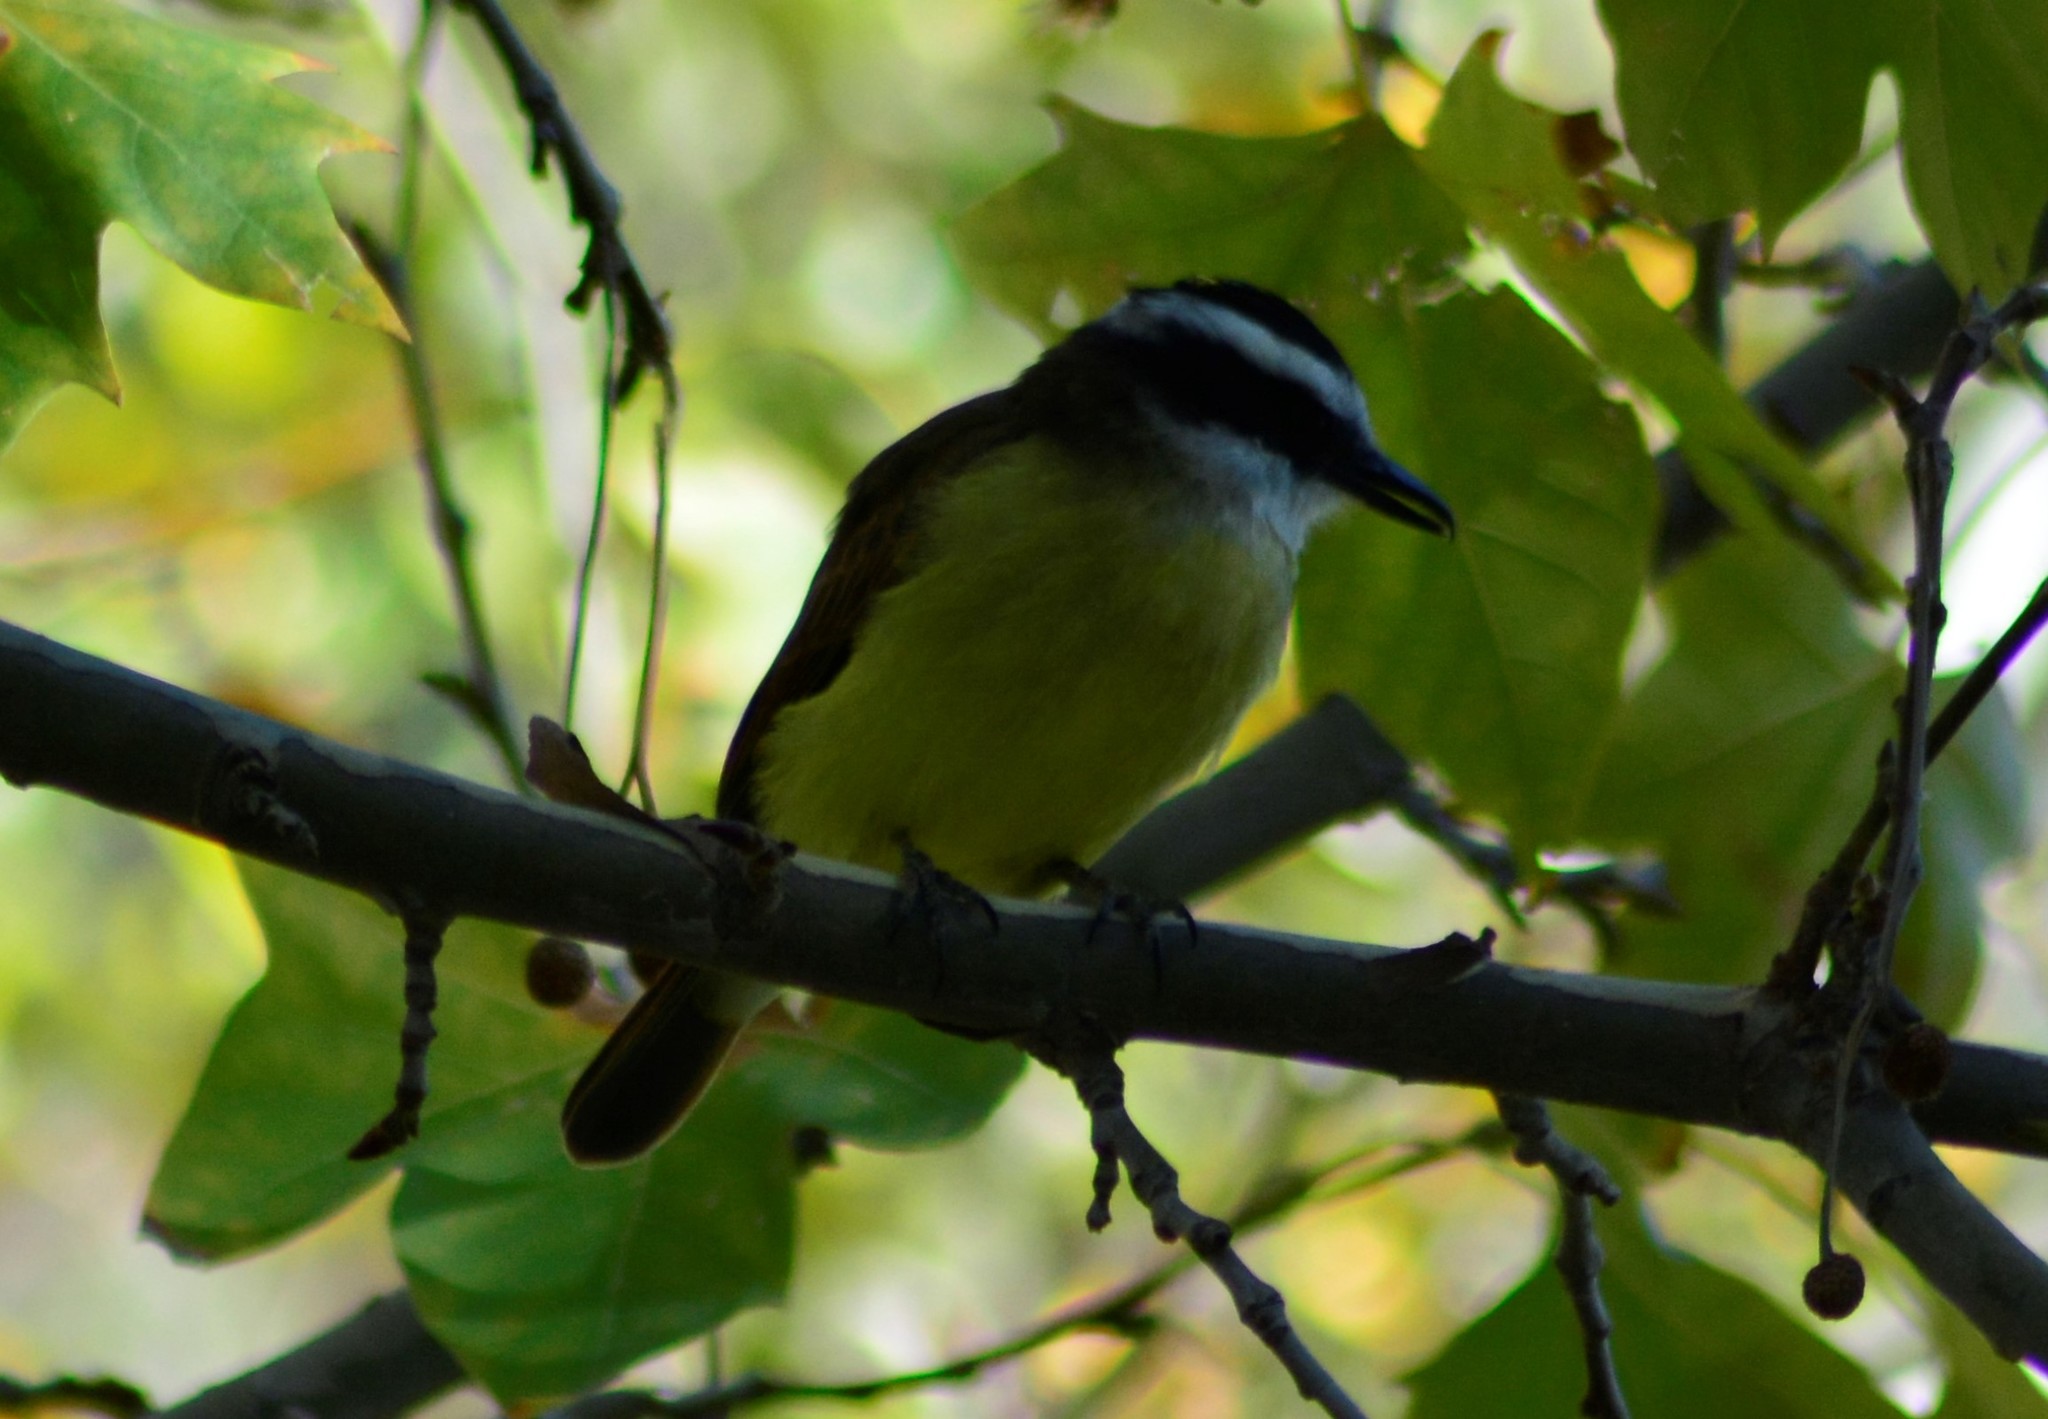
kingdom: Animalia
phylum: Chordata
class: Aves
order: Passeriformes
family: Tyrannidae
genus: Pitangus
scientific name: Pitangus sulphuratus
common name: Great kiskadee
